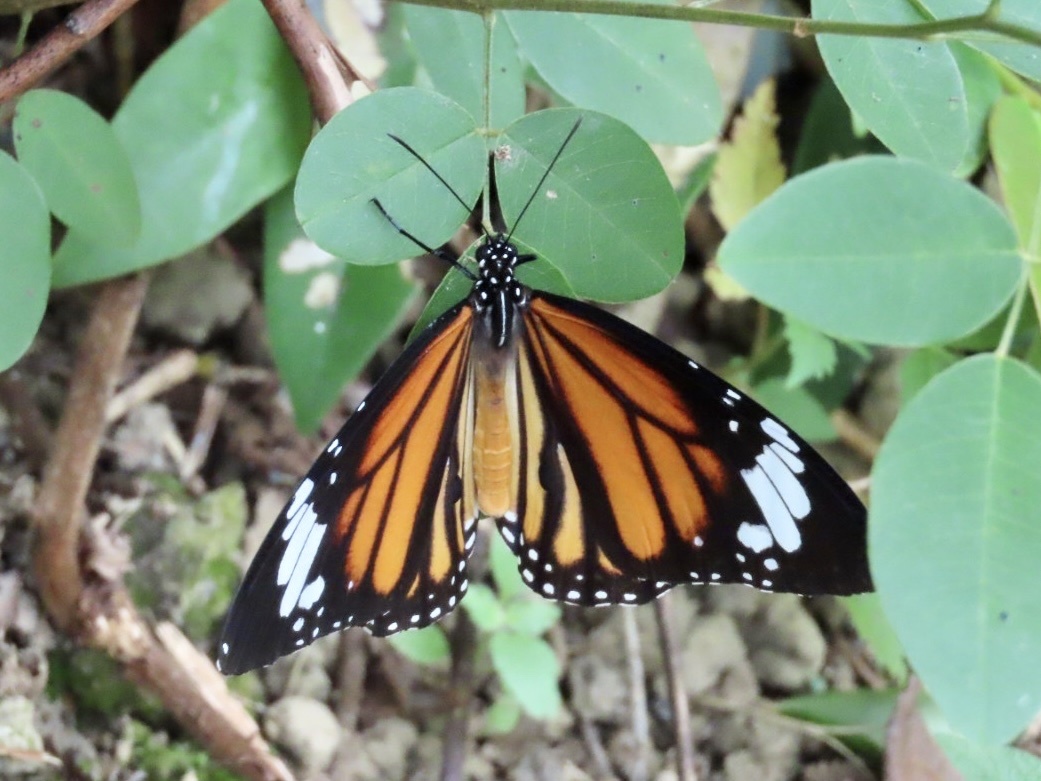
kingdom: Animalia
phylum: Arthropoda
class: Insecta
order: Lepidoptera
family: Nymphalidae
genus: Danaus
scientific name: Danaus genutia
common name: Common tiger butterfly
